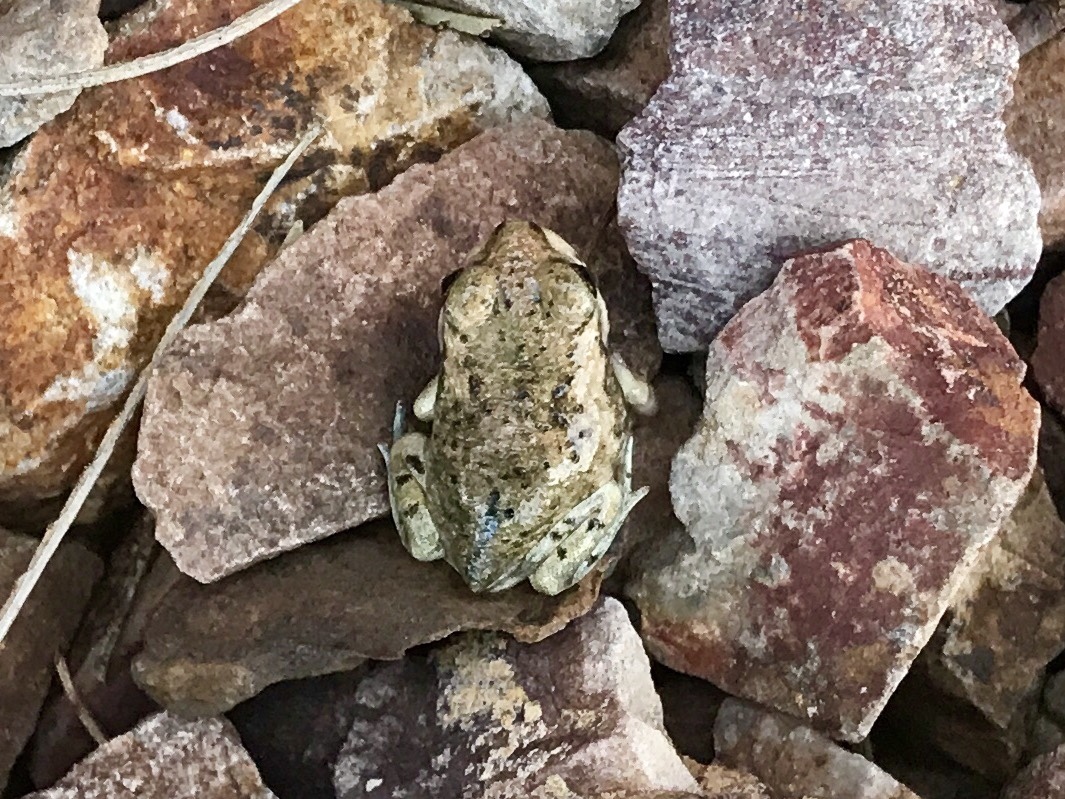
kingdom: Animalia
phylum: Chordata
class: Amphibia
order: Anura
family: Scaphiopodidae
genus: Spea
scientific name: Spea multiplicata
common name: Mexican spadefoot
